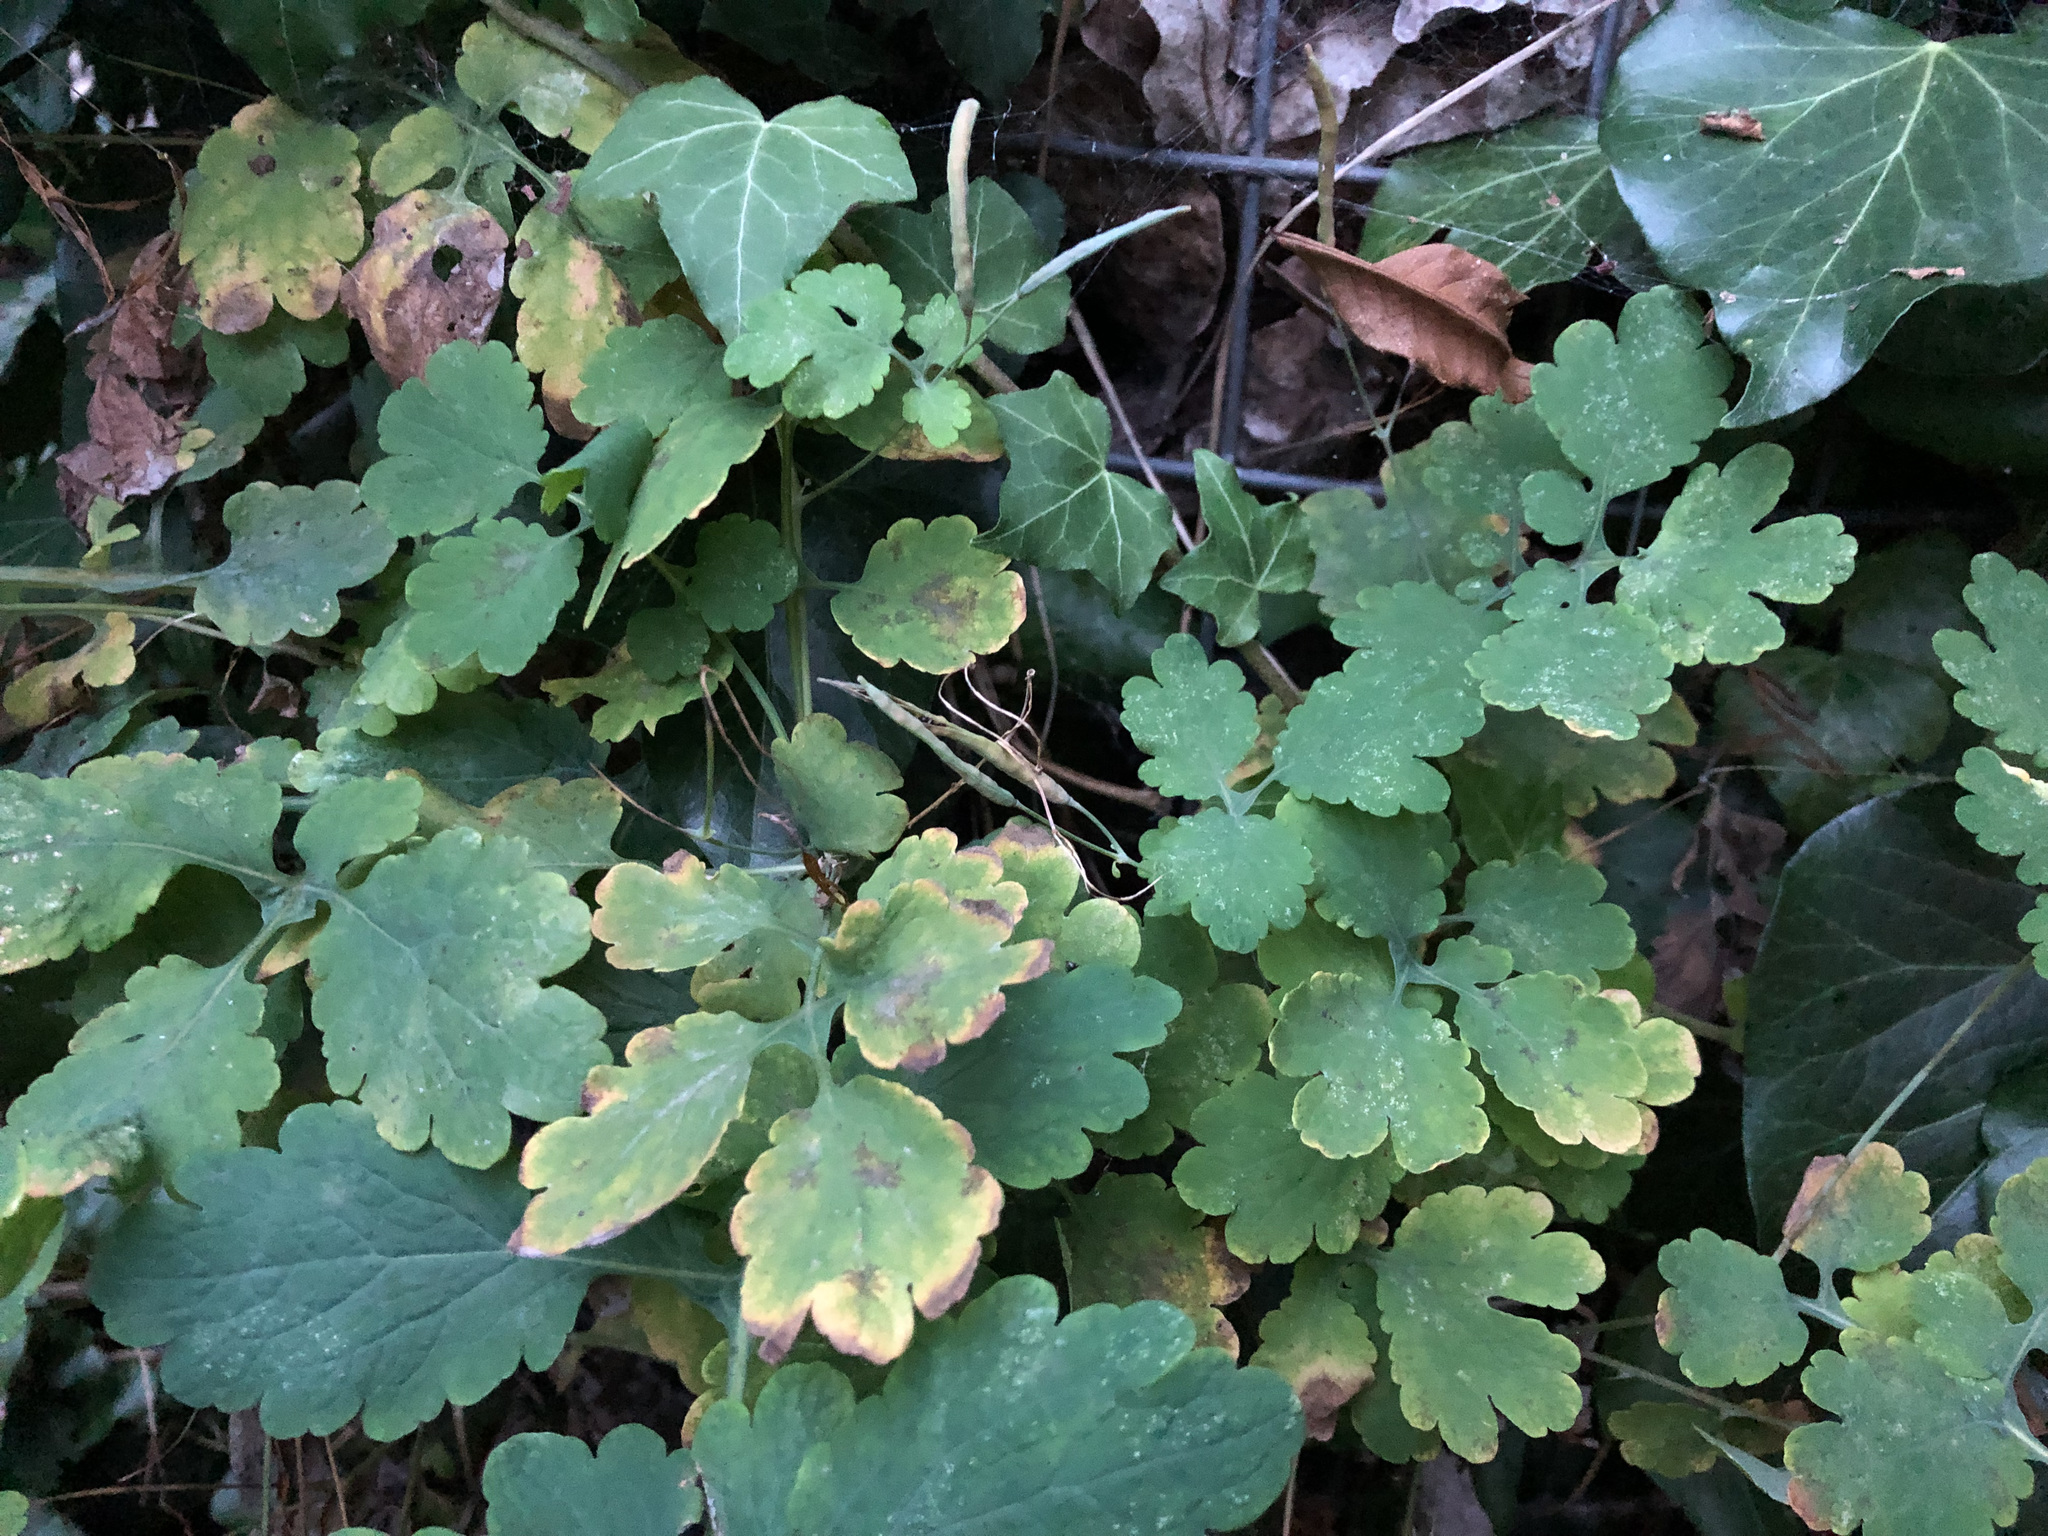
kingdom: Plantae
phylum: Tracheophyta
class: Magnoliopsida
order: Ranunculales
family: Papaveraceae
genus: Chelidonium
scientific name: Chelidonium majus
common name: Greater celandine
